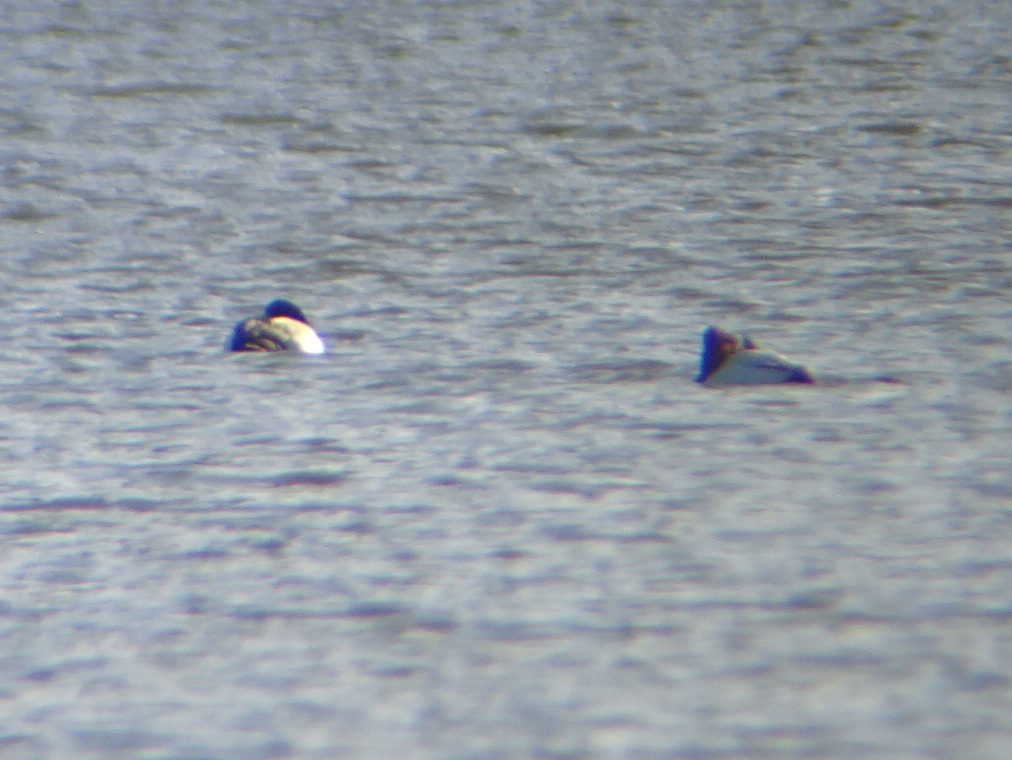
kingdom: Animalia
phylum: Chordata
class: Aves
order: Anseriformes
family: Anatidae
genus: Aythya
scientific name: Aythya marila
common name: Greater scaup
